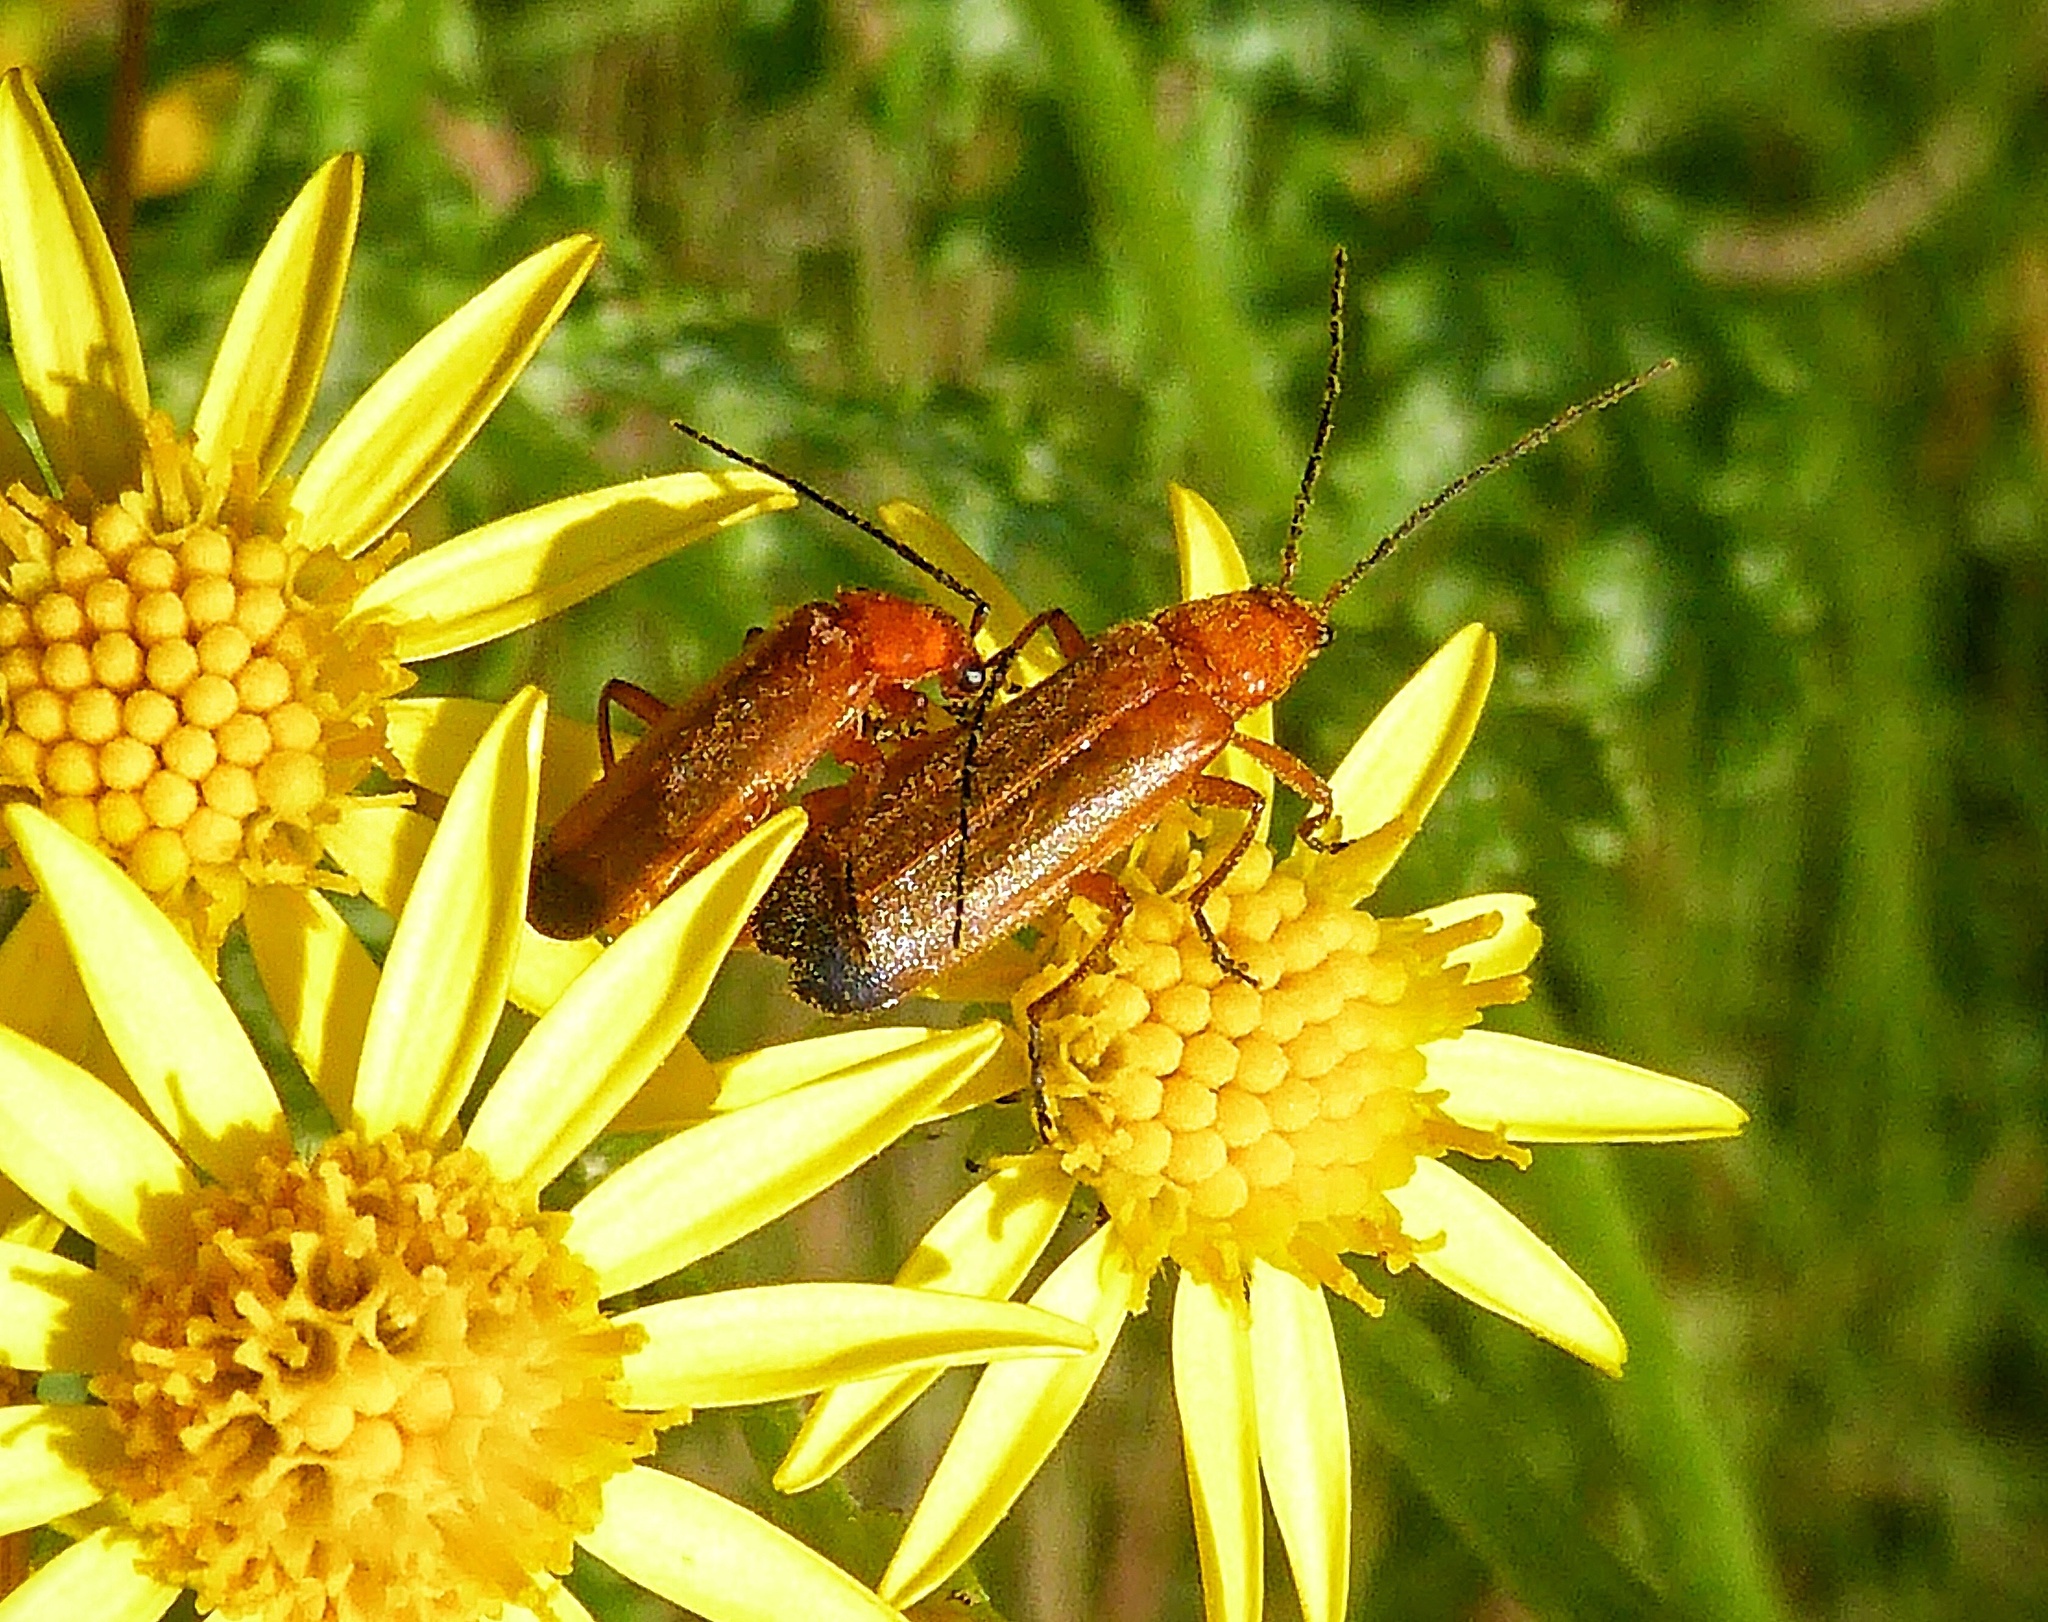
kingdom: Animalia
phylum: Arthropoda
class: Insecta
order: Coleoptera
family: Cantharidae
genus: Rhagonycha
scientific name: Rhagonycha fulva
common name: Common red soldier beetle
